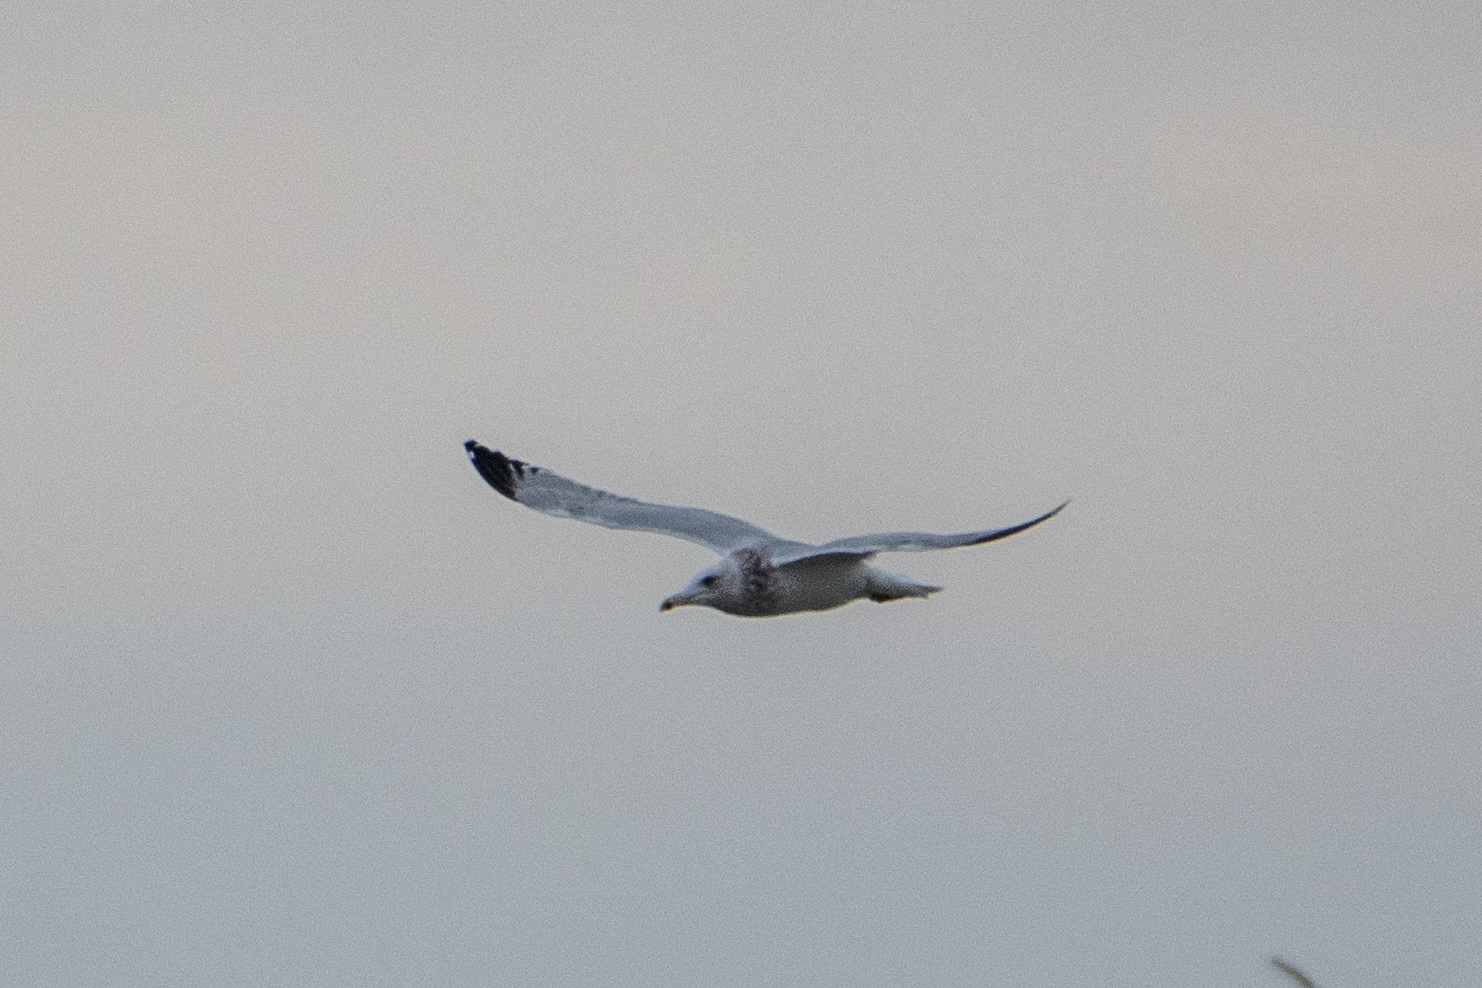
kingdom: Animalia
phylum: Chordata
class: Aves
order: Charadriiformes
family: Laridae
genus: Larus
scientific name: Larus argentatus
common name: Herring gull
